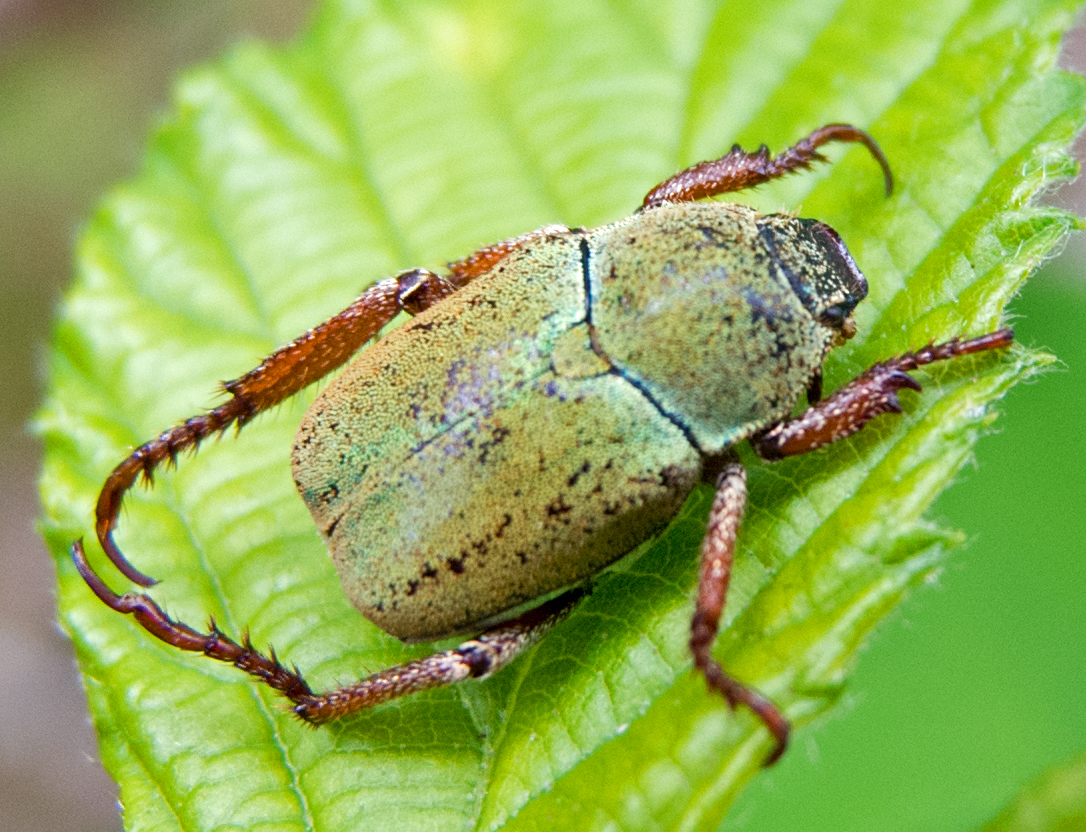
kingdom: Animalia
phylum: Arthropoda
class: Insecta
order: Coleoptera
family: Scarabaeidae
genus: Hoplia
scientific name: Hoplia dilutipes
